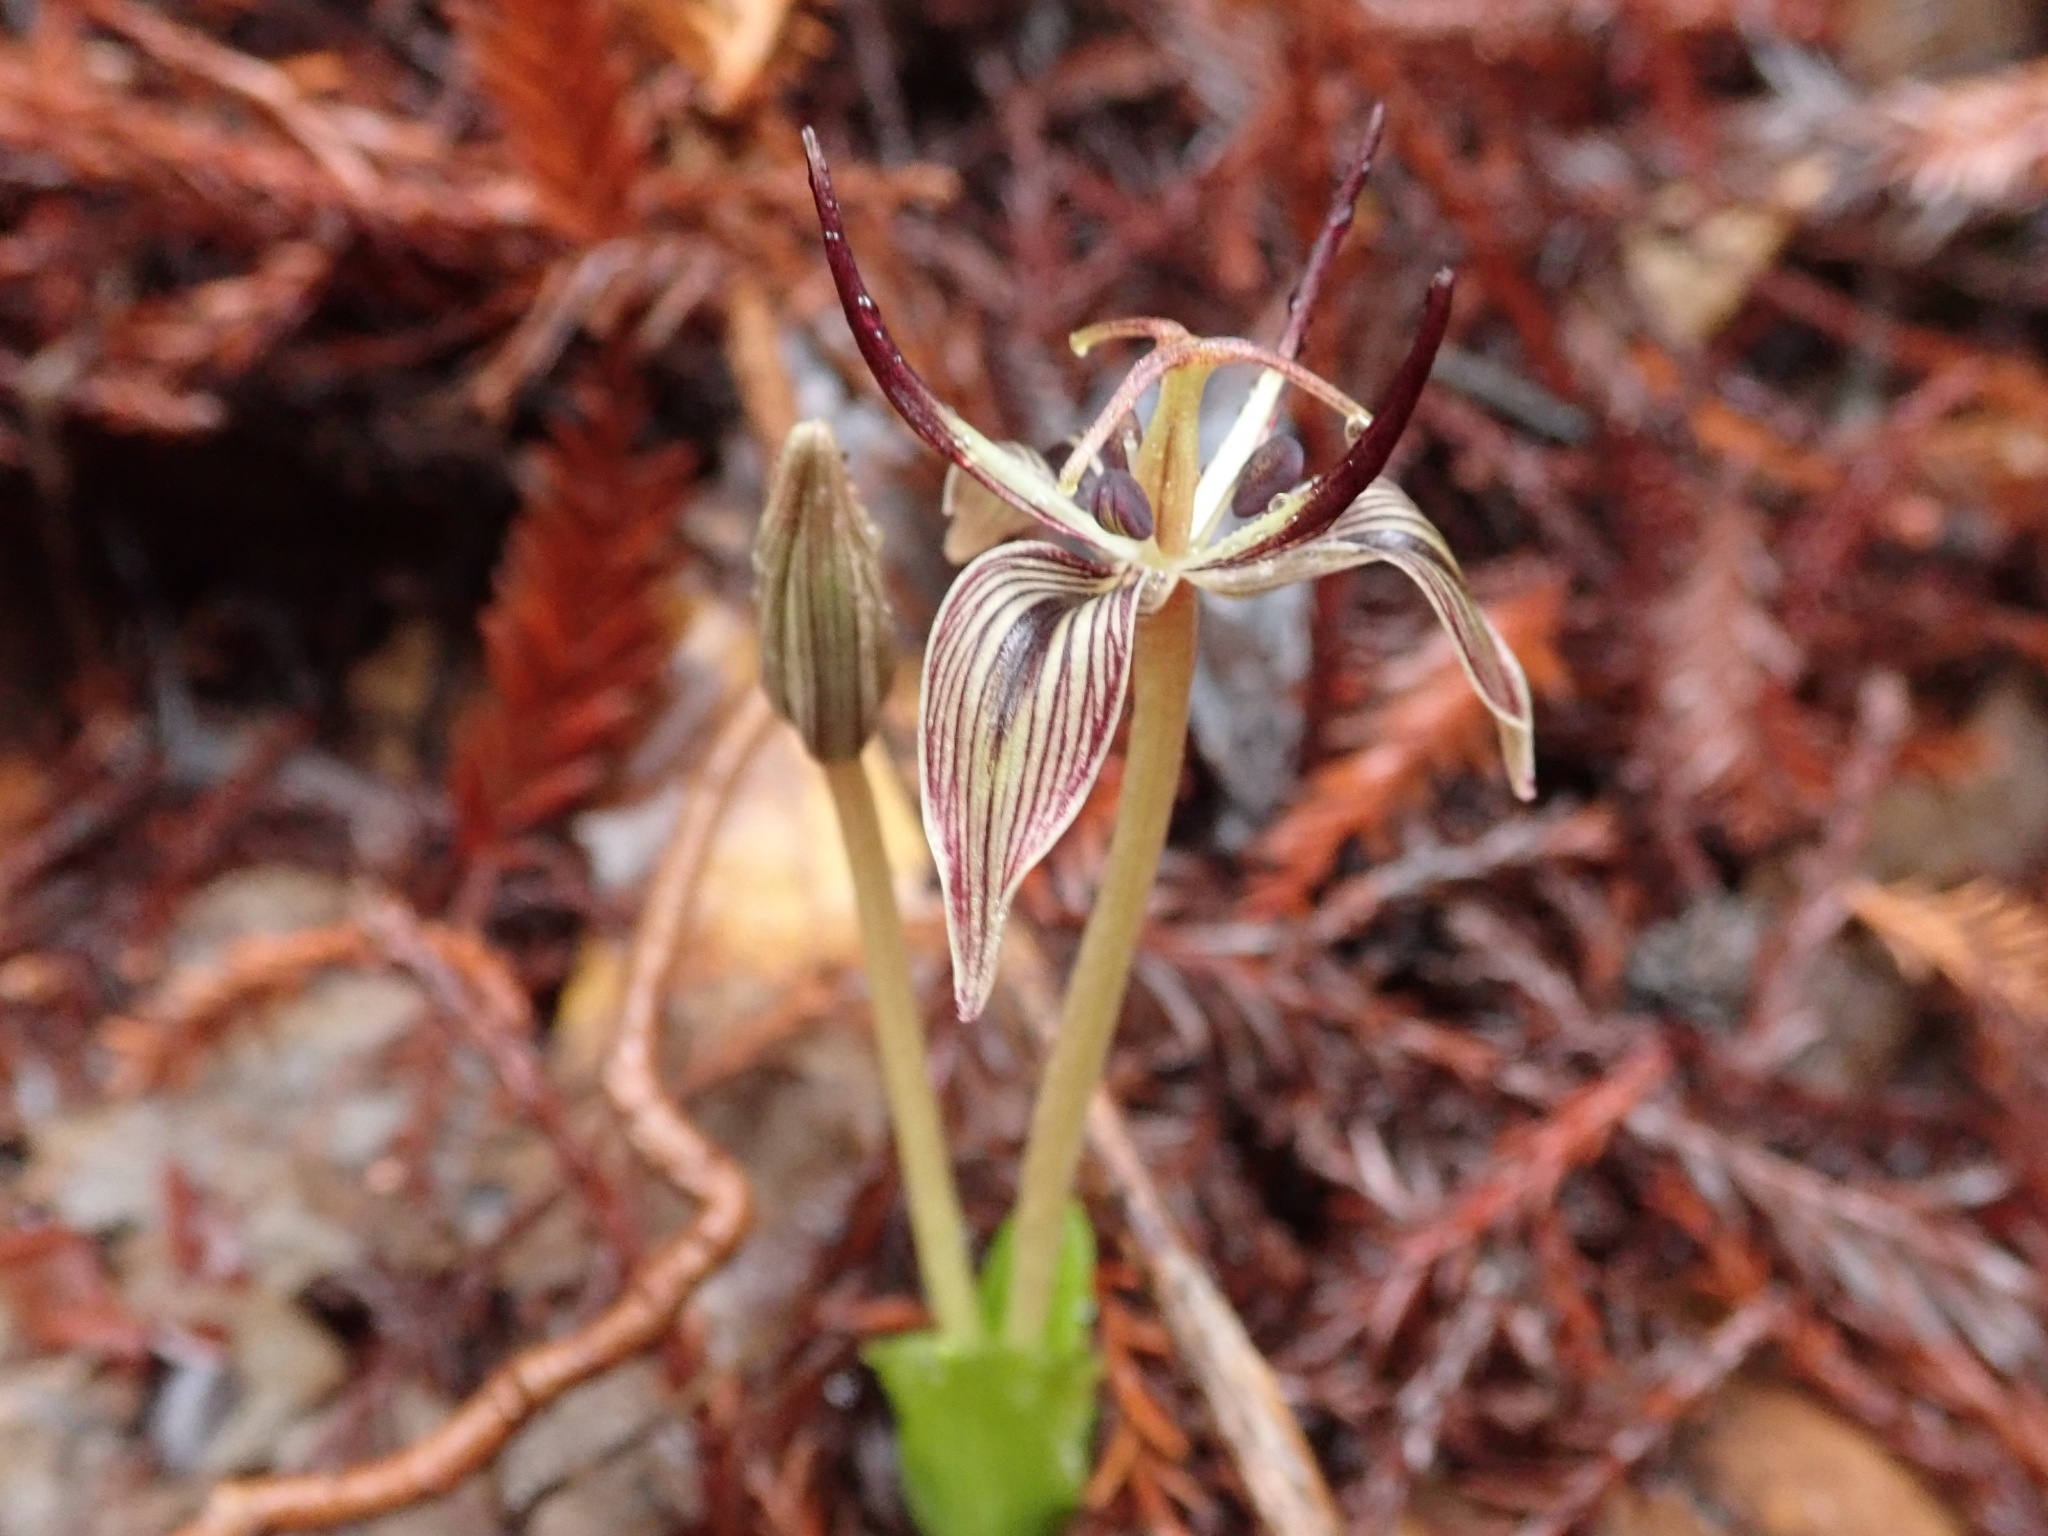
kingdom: Plantae
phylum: Tracheophyta
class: Liliopsida
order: Liliales
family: Liliaceae
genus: Scoliopus
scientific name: Scoliopus bigelovii
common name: Foetid adder's-tongue
